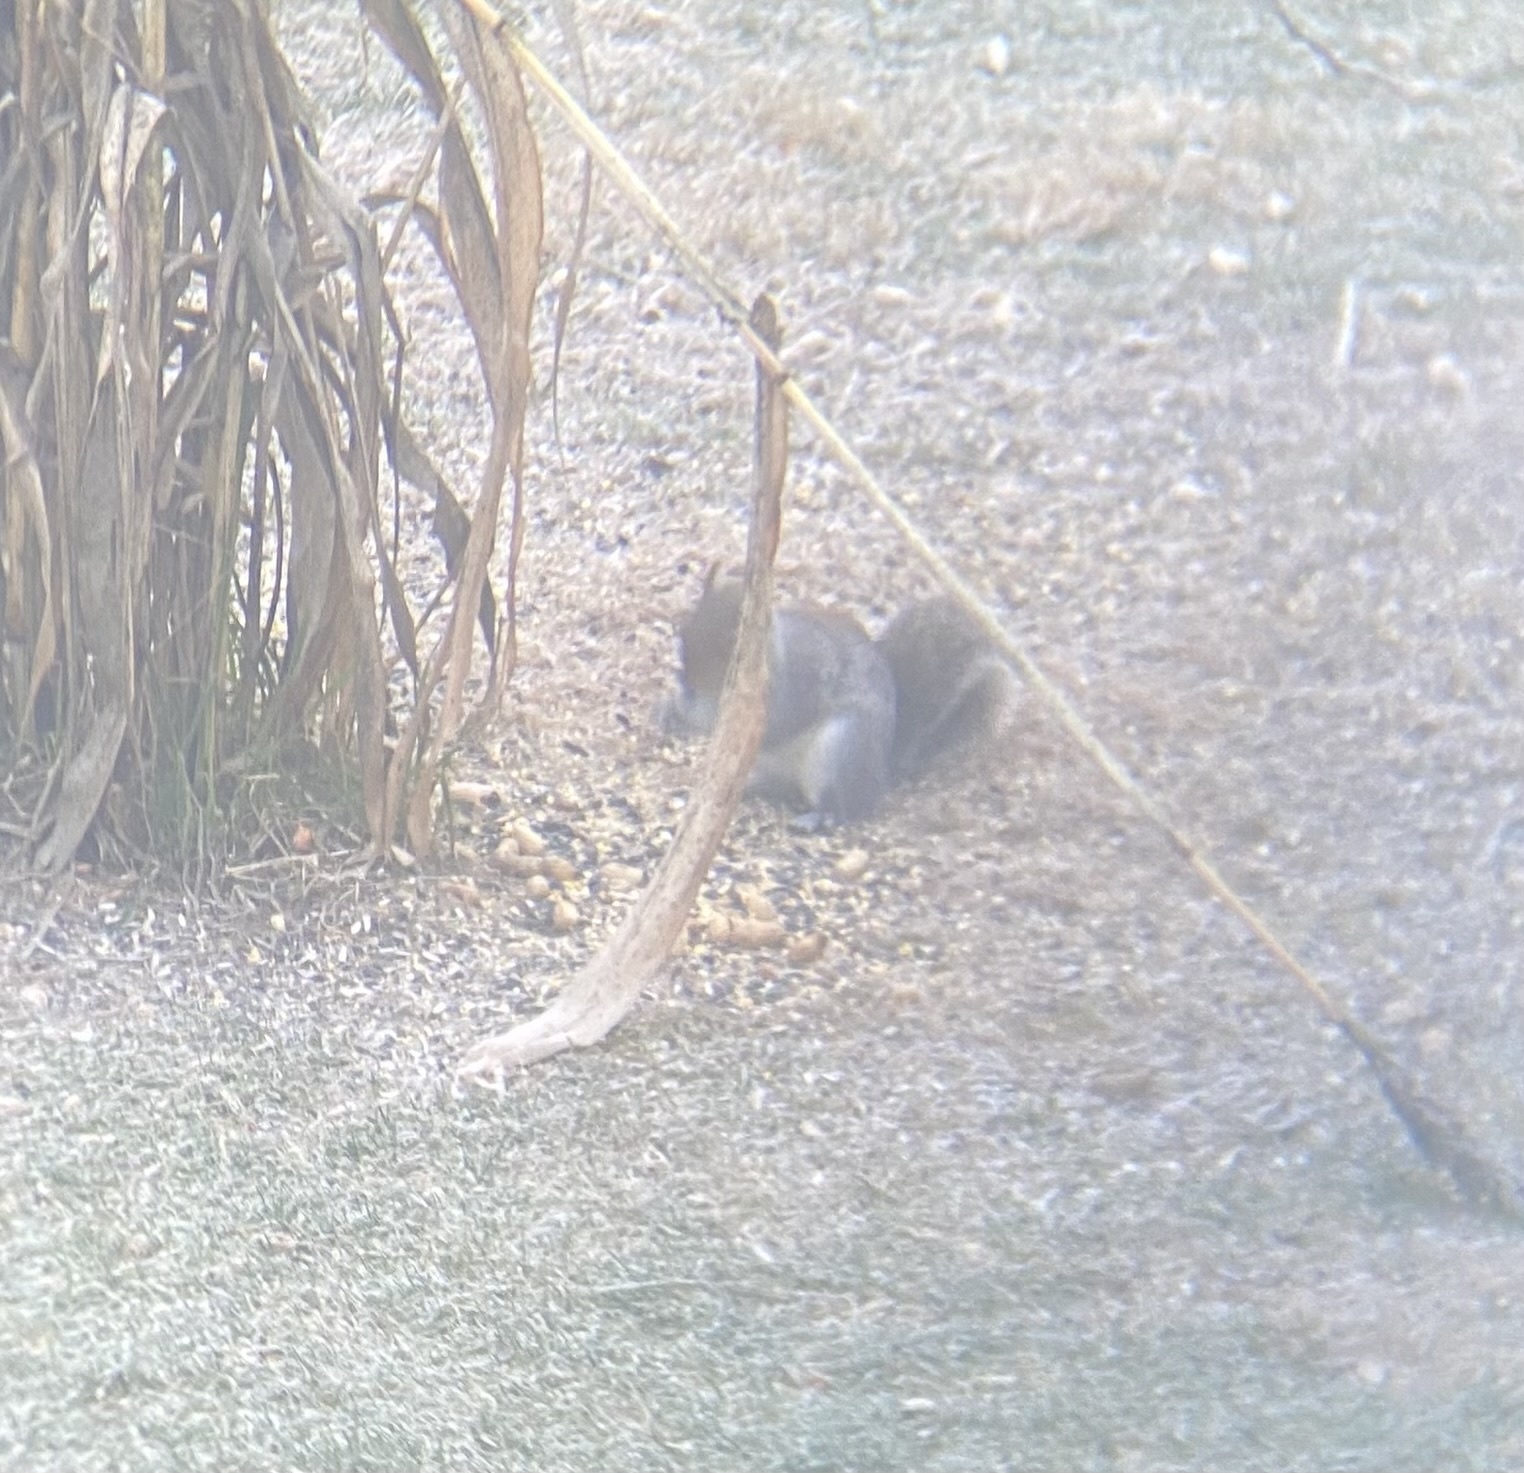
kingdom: Animalia
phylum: Chordata
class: Mammalia
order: Rodentia
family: Sciuridae
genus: Sciurus
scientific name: Sciurus carolinensis
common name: Eastern gray squirrel
